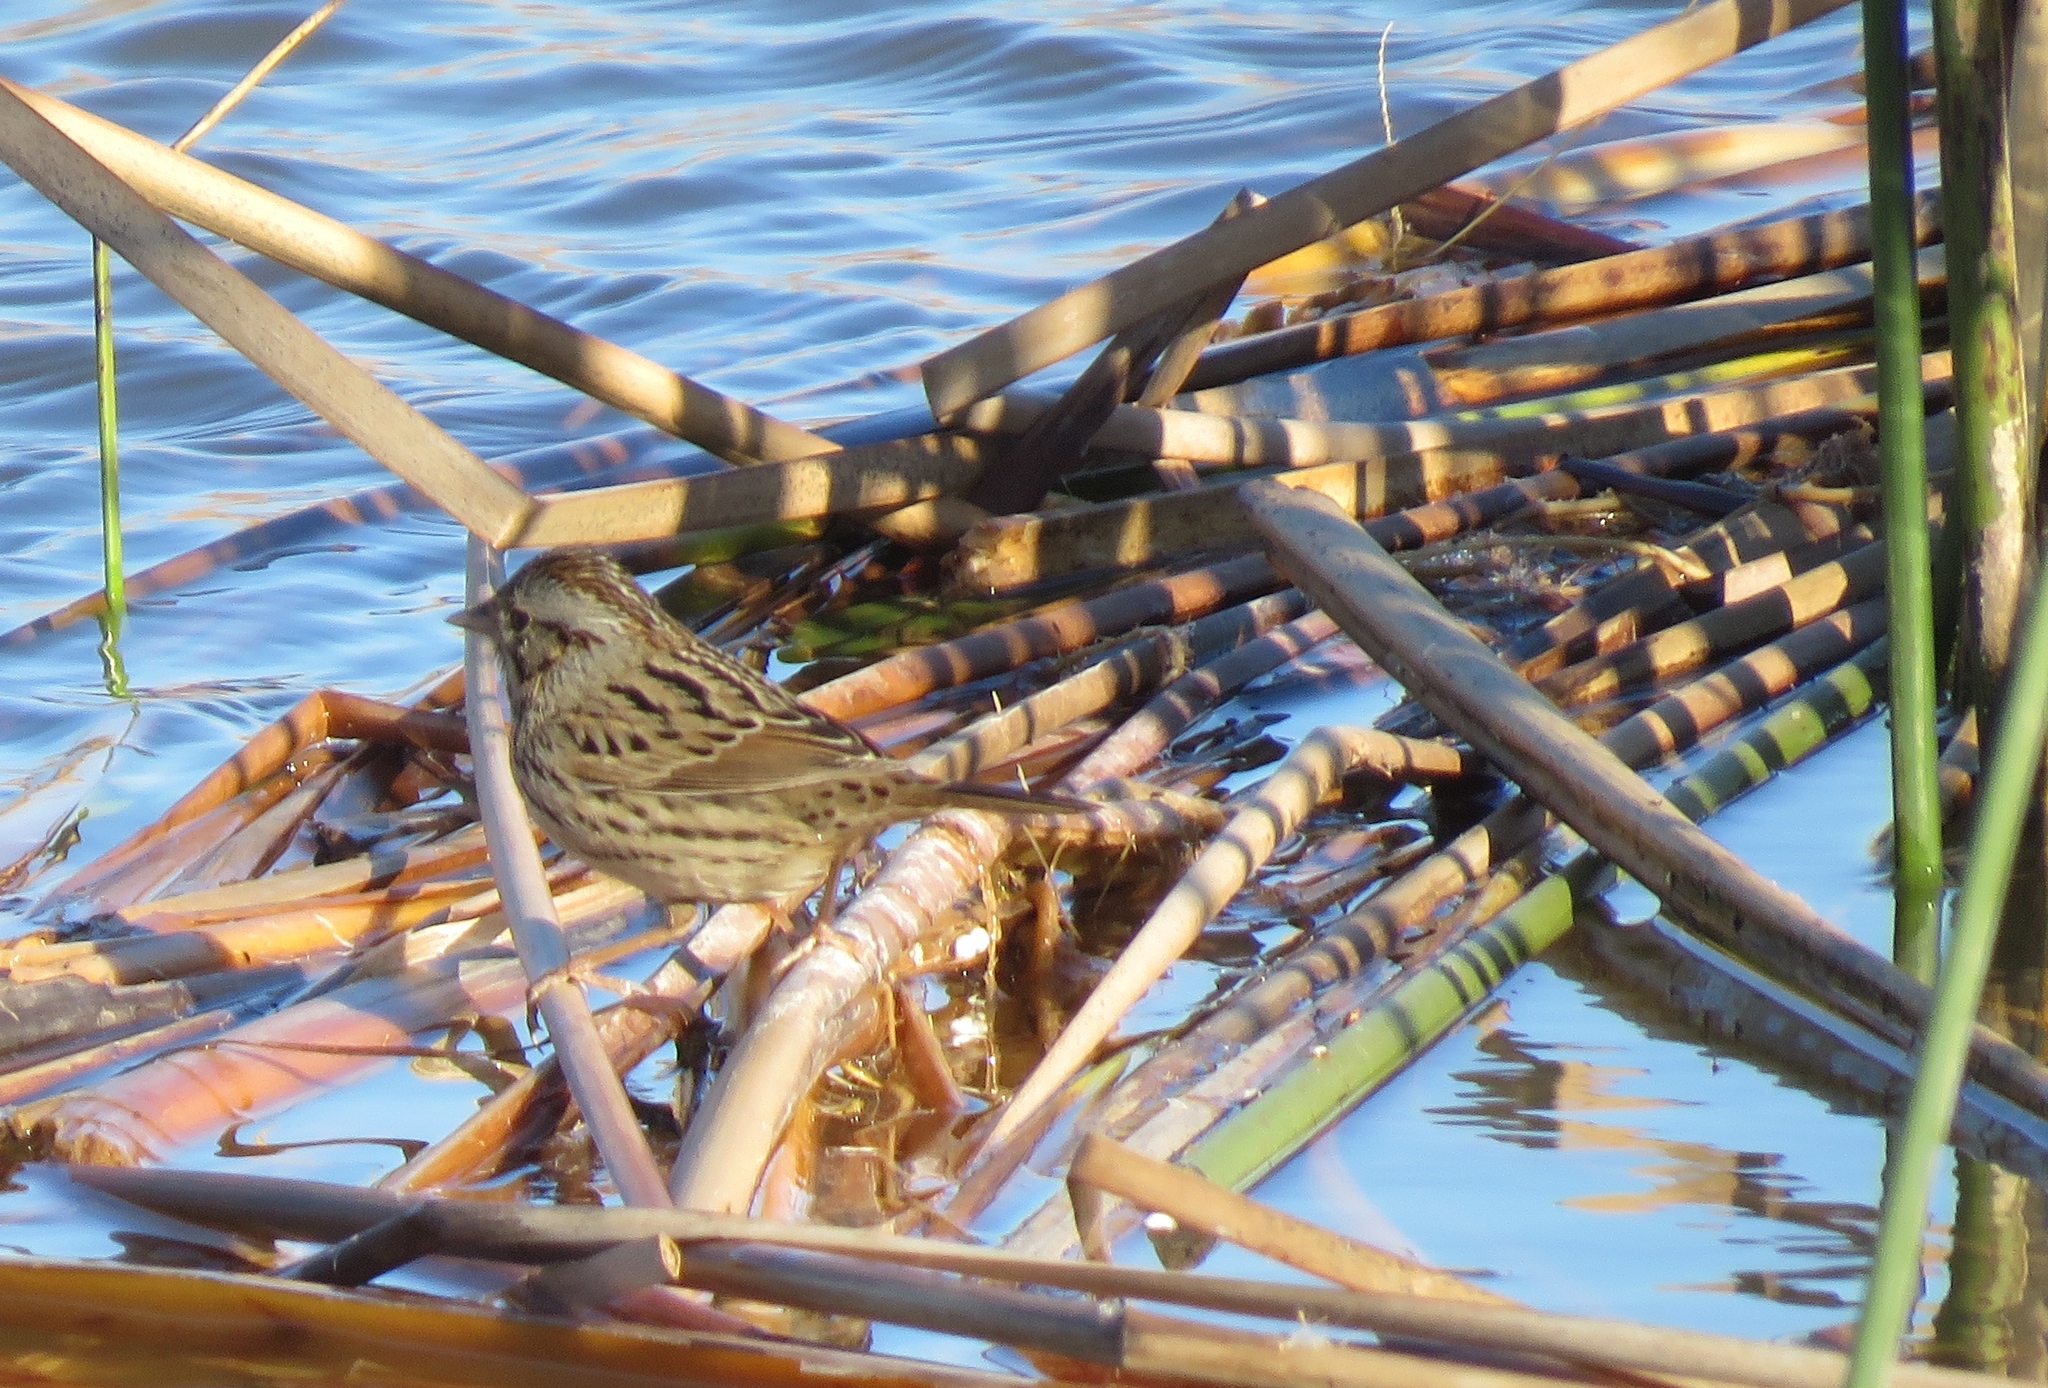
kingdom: Animalia
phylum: Chordata
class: Aves
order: Passeriformes
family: Passerellidae
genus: Melospiza
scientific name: Melospiza lincolnii
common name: Lincoln's sparrow
